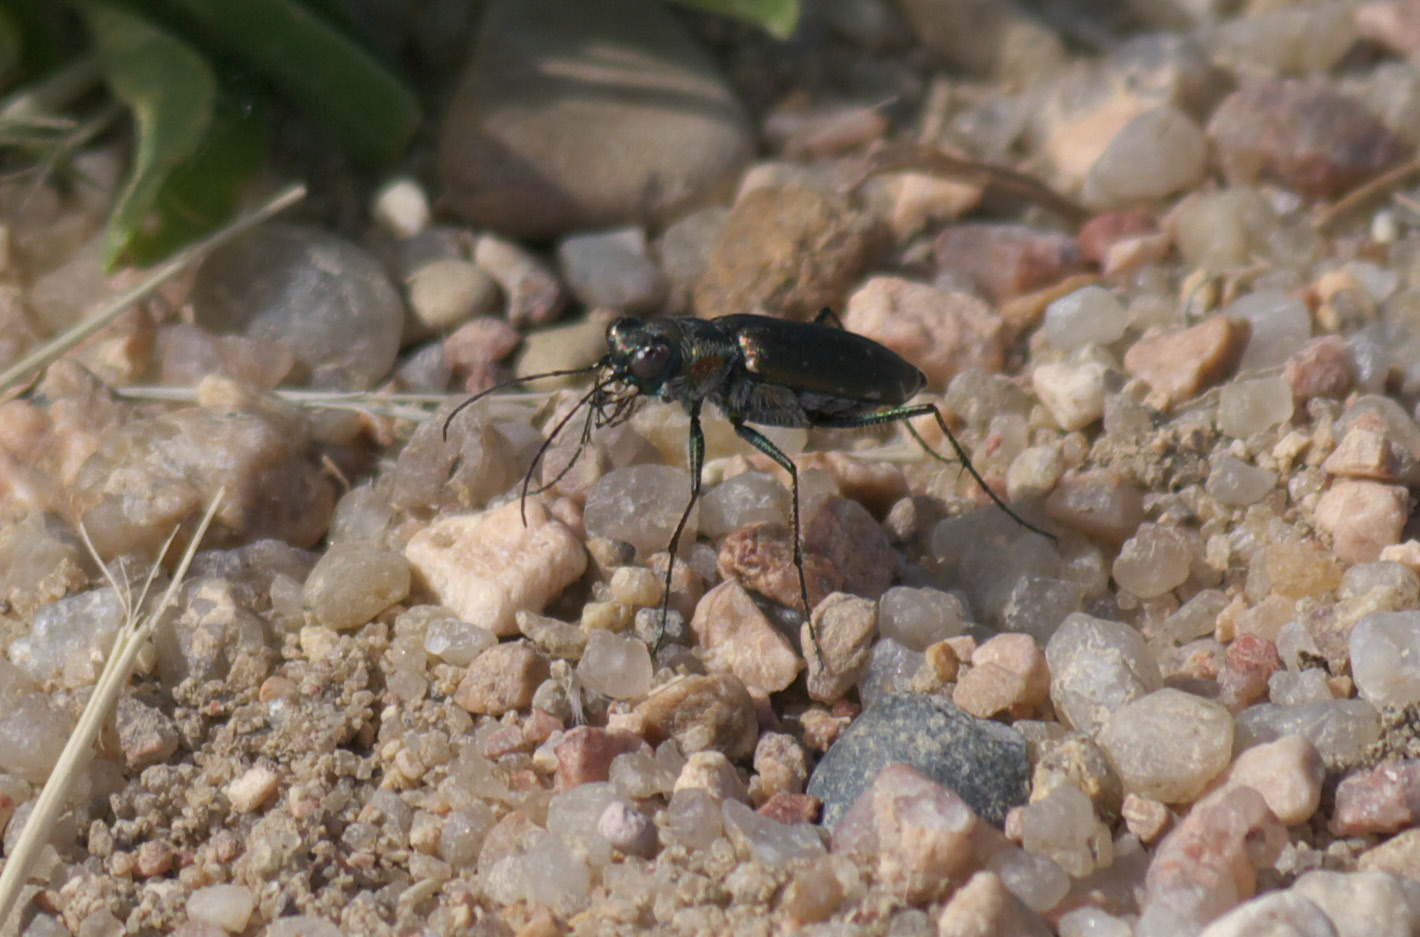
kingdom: Animalia
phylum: Arthropoda
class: Insecta
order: Coleoptera
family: Carabidae
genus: Cicindela
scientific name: Cicindela punctulata
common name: Punctured tiger beetle
